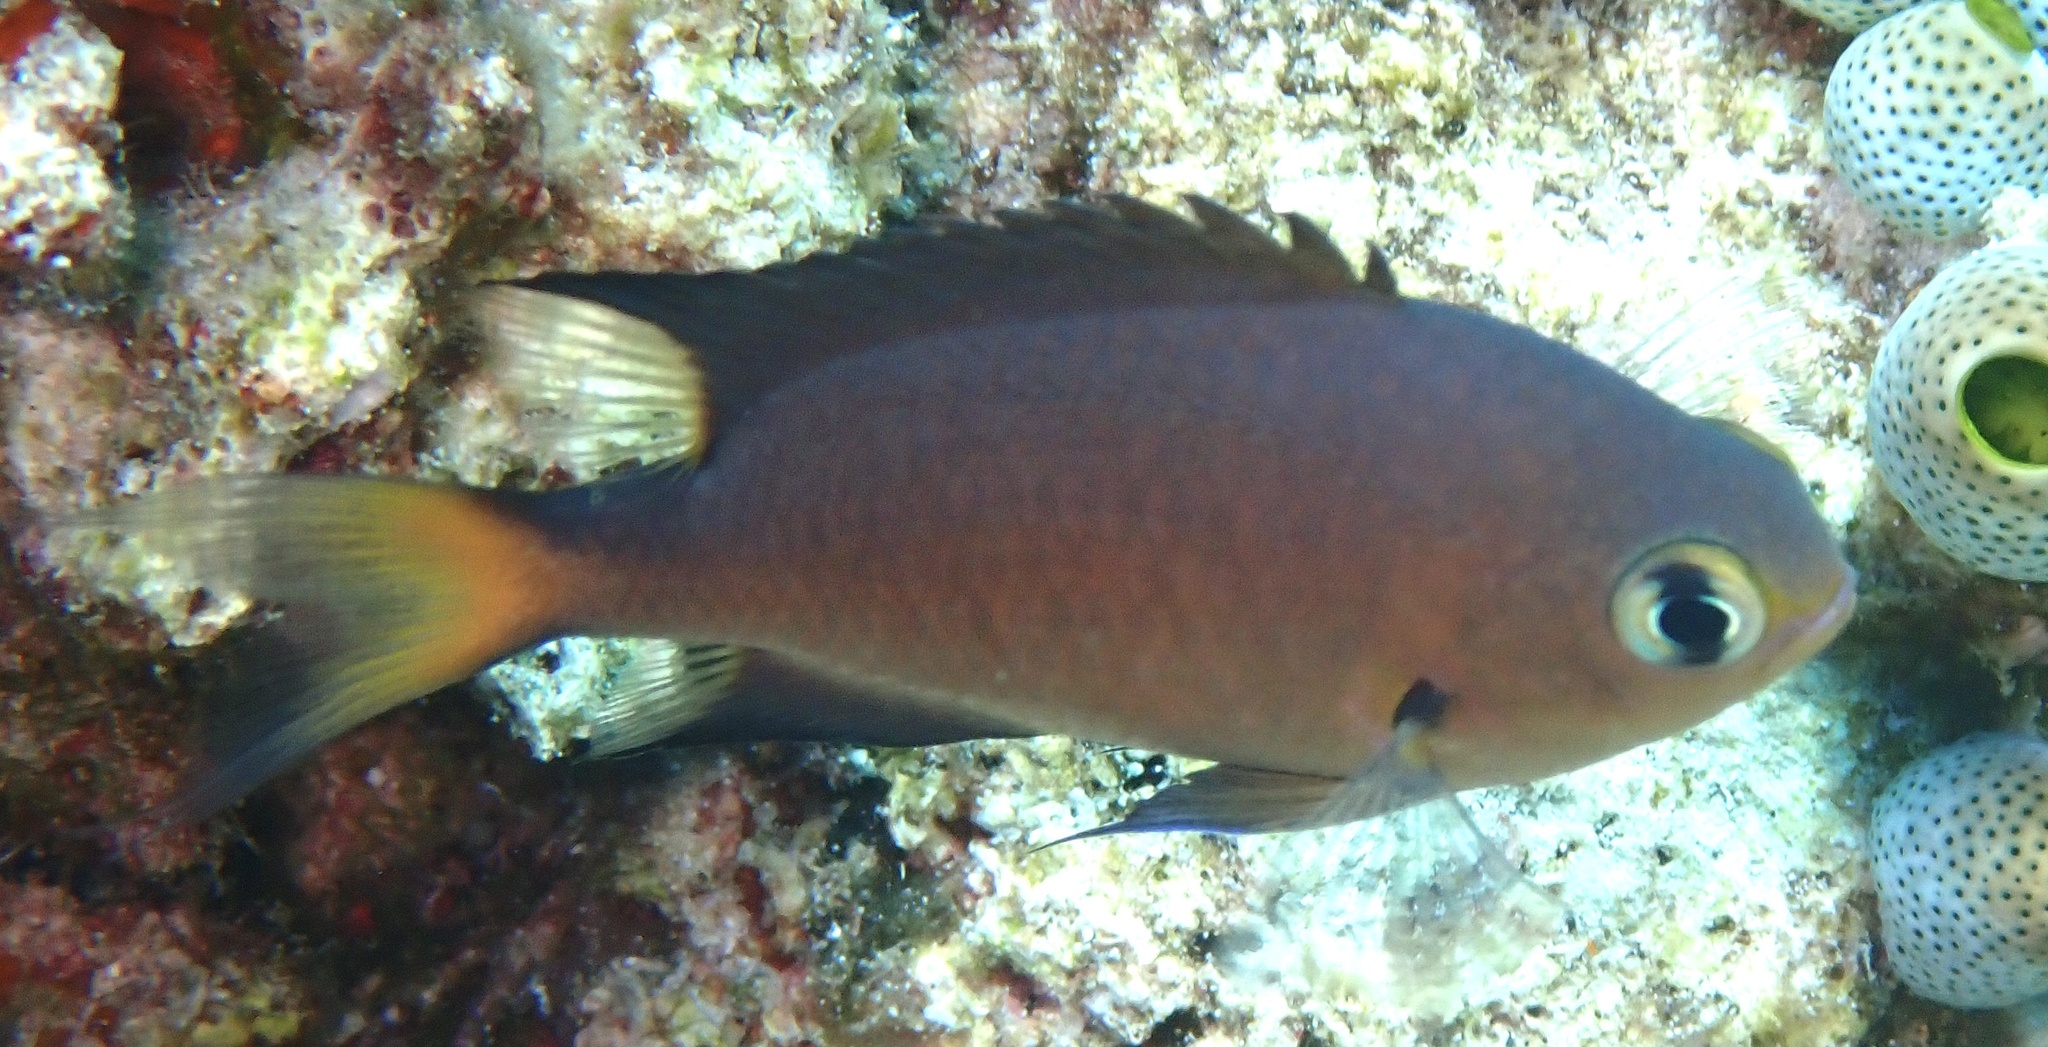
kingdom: Animalia
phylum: Chordata
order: Perciformes
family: Pomacentridae
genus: Chromis
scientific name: Chromis atripes
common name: Dark-fin chromis
